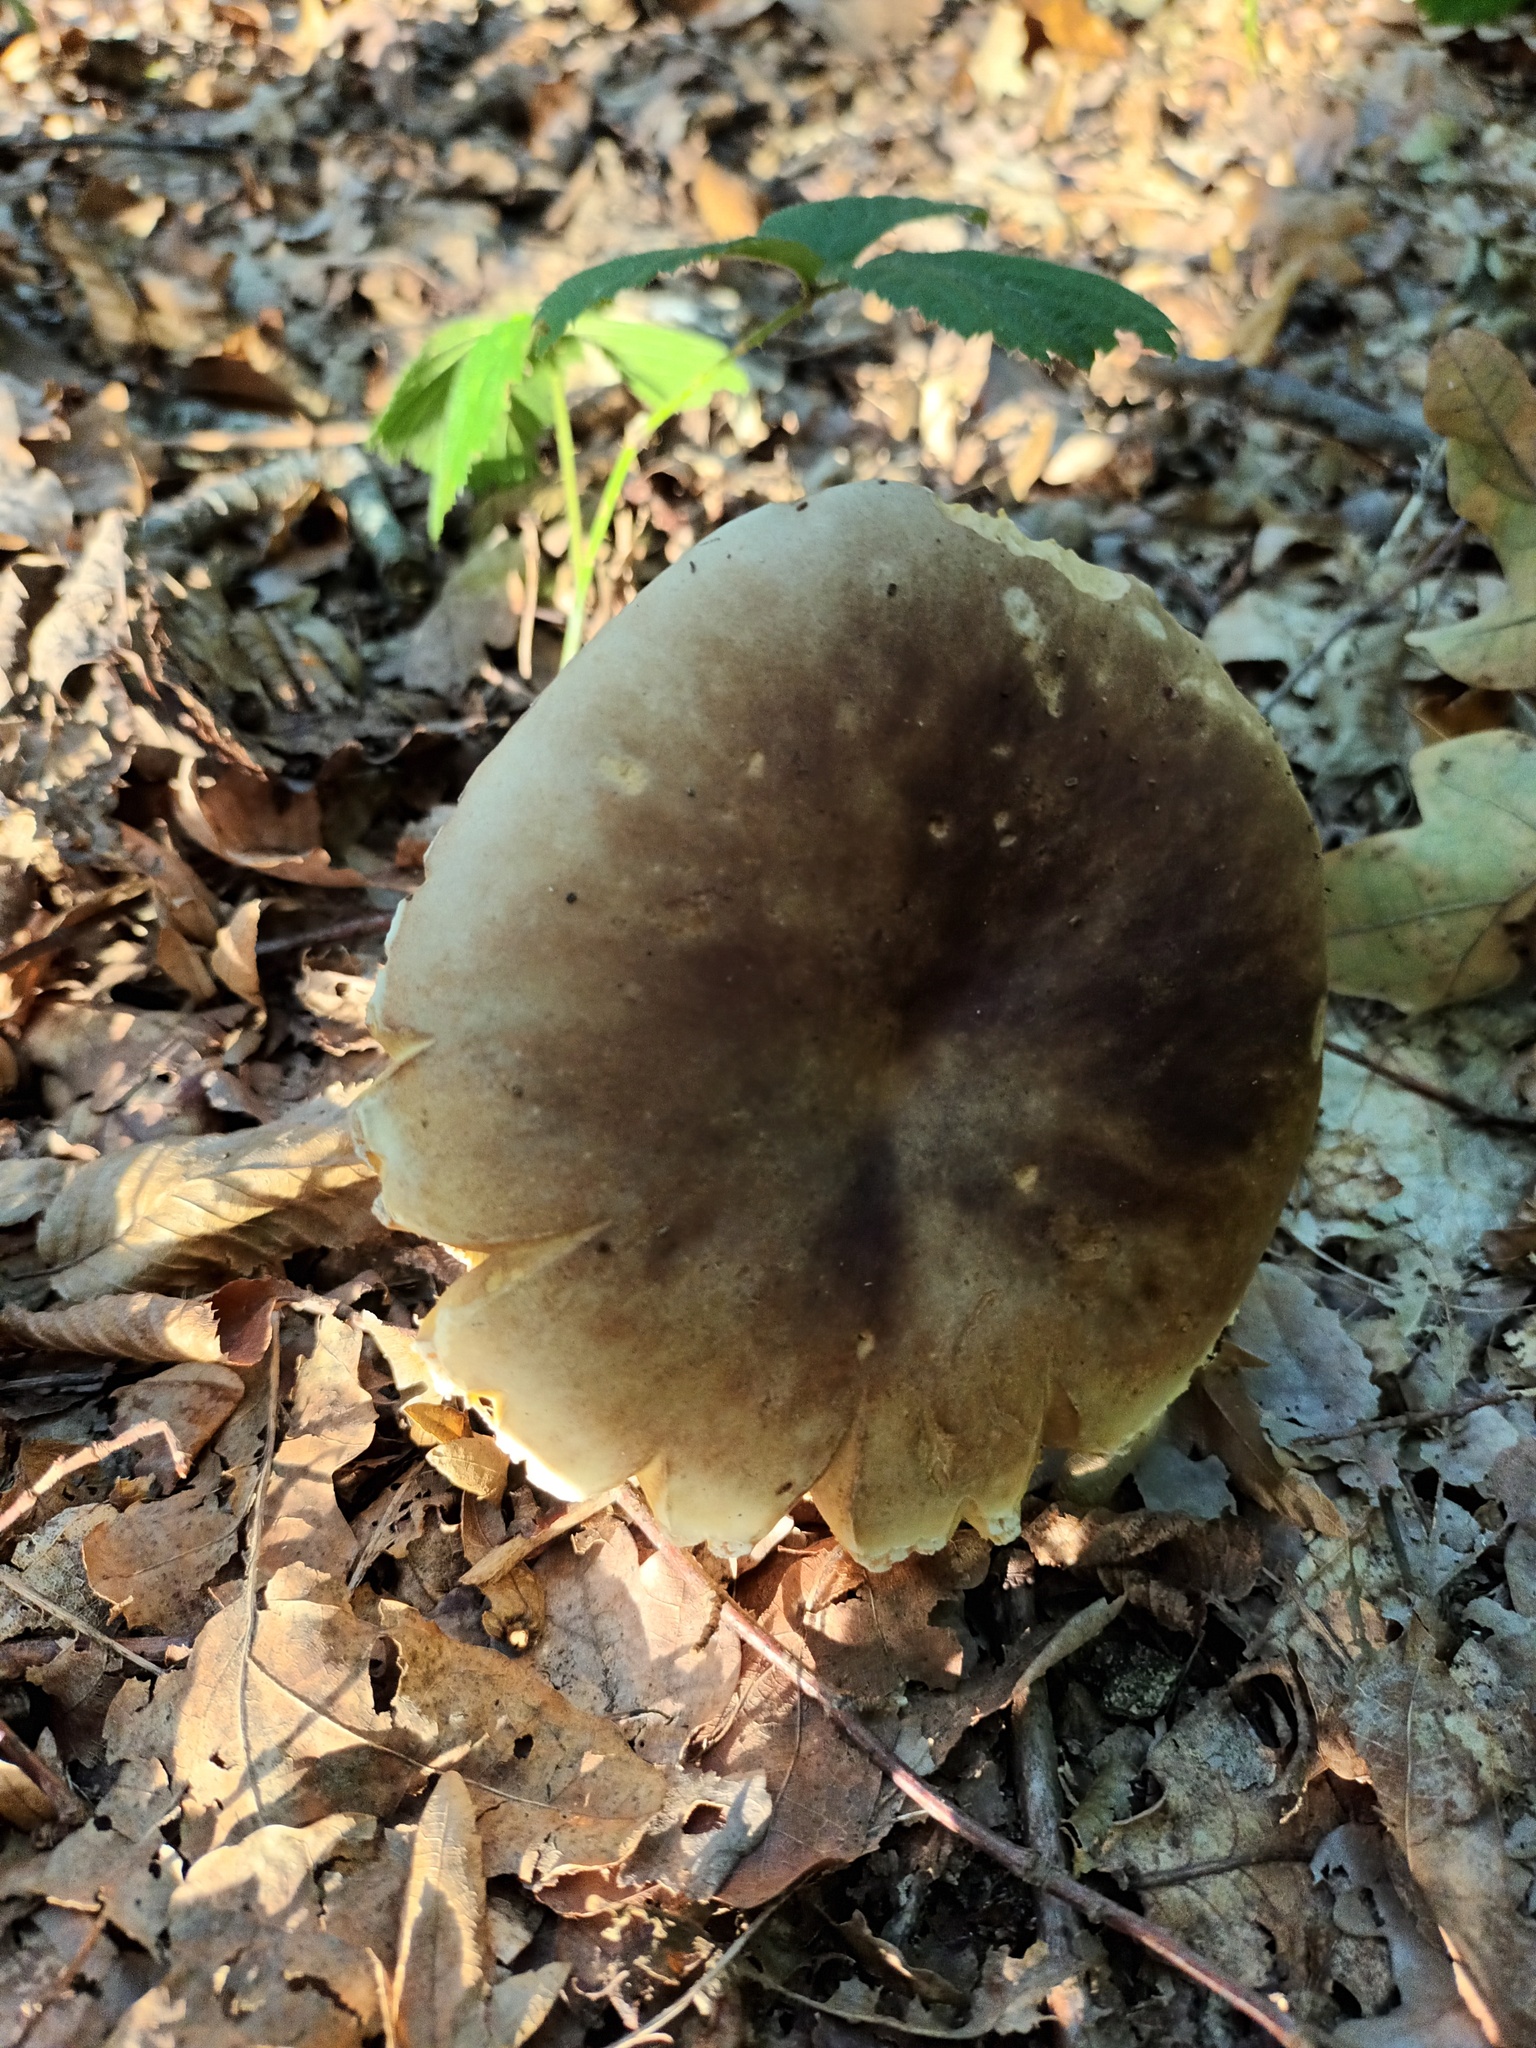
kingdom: Fungi
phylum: Basidiomycota
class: Agaricomycetes
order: Boletales
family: Boletaceae
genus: Boletus
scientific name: Boletus reticulatus
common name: Summer bolete
